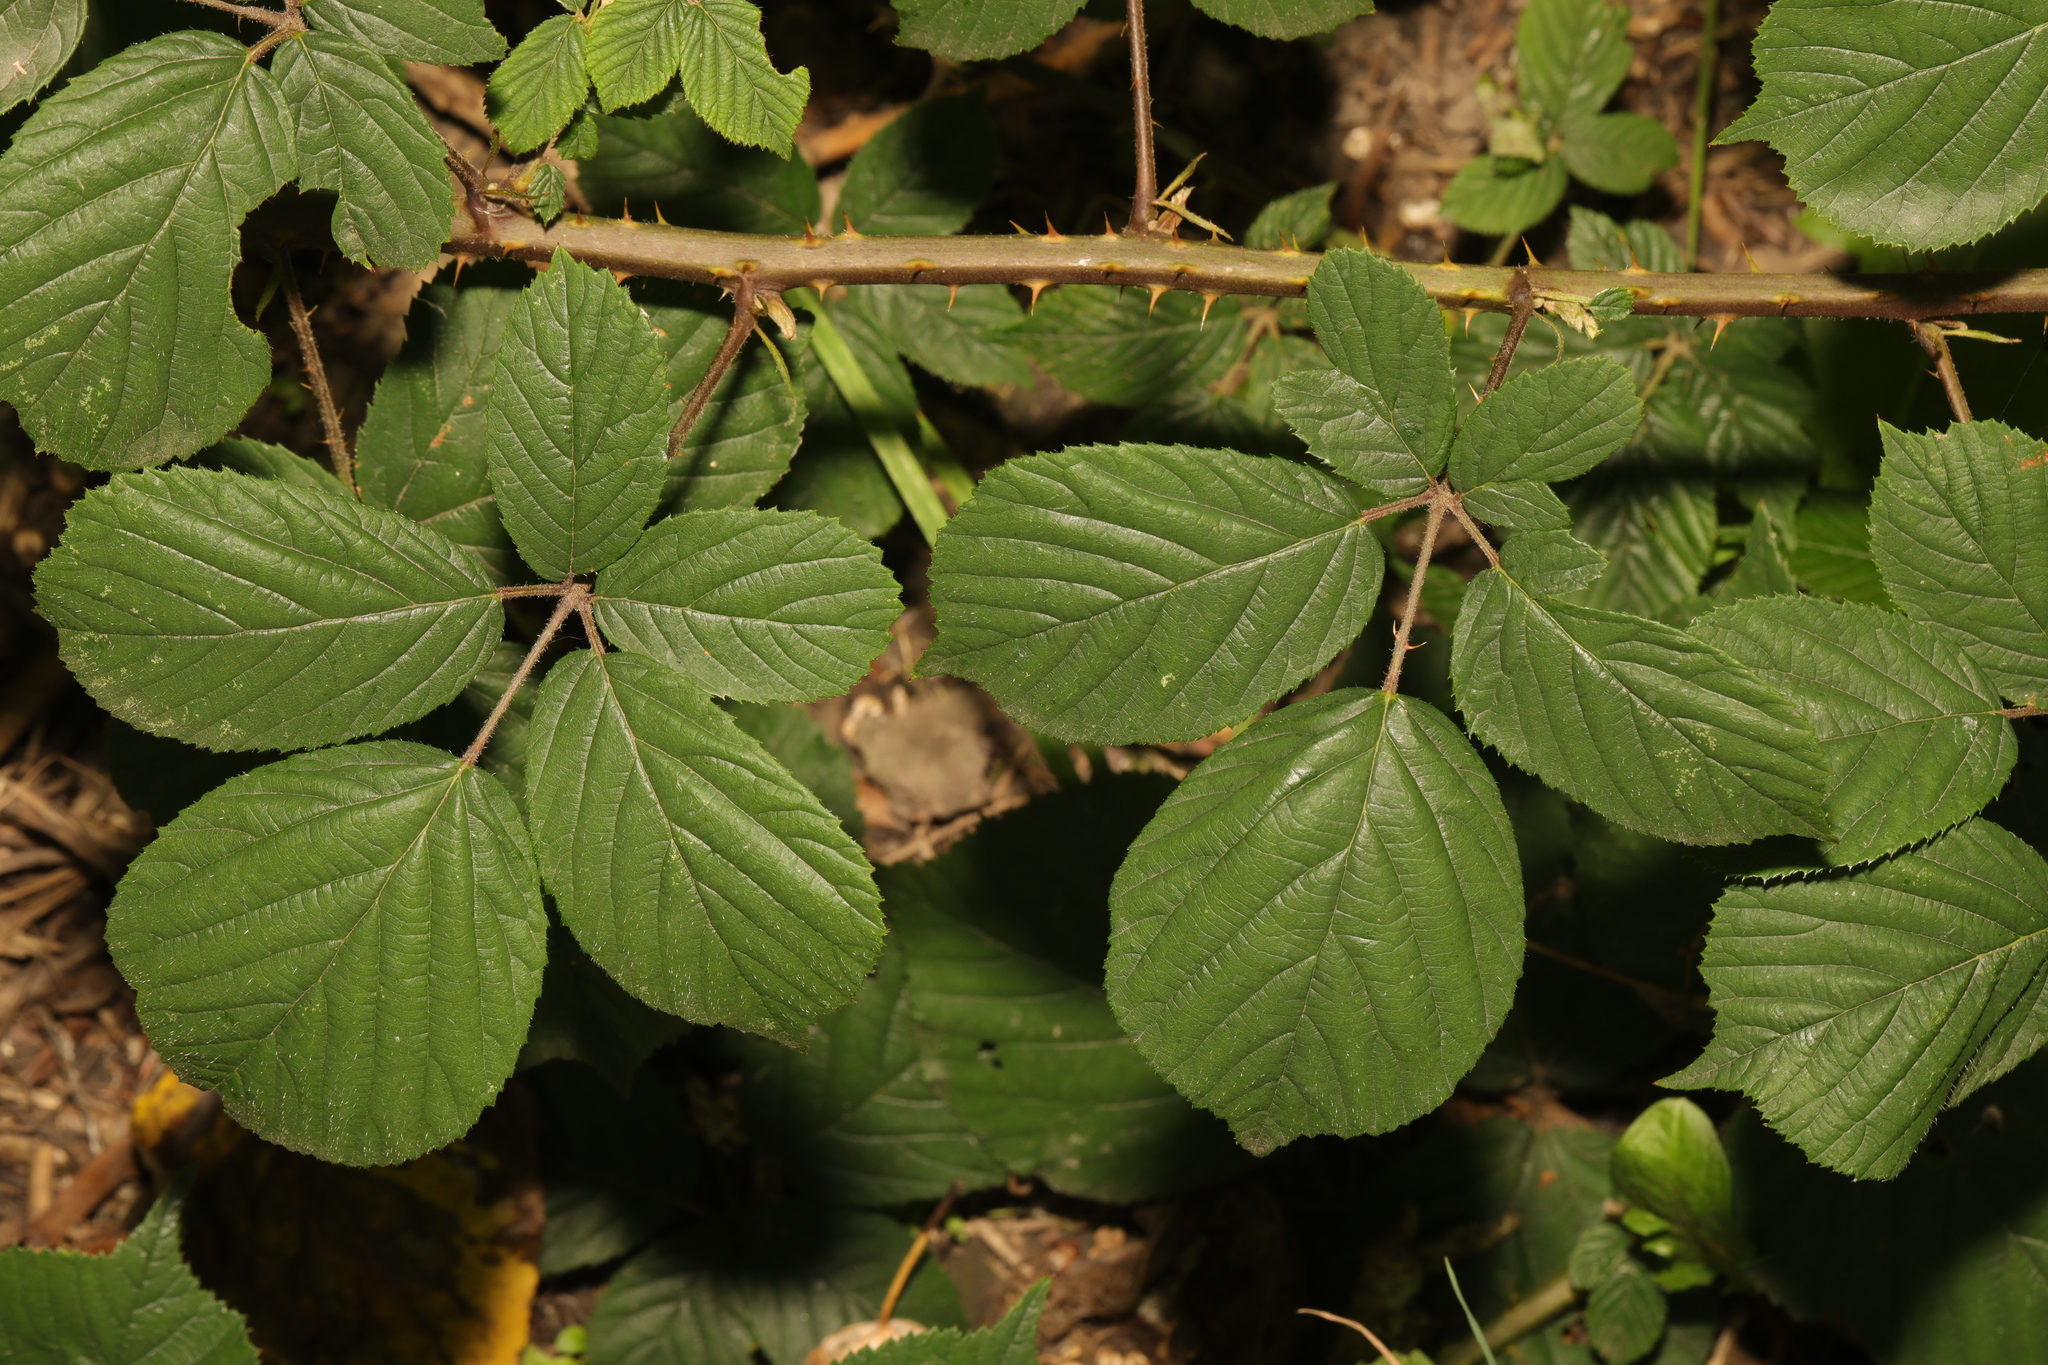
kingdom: Plantae
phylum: Tracheophyta
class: Magnoliopsida
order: Rosales
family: Rosaceae
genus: Rubus
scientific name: Rubus wirralensis
